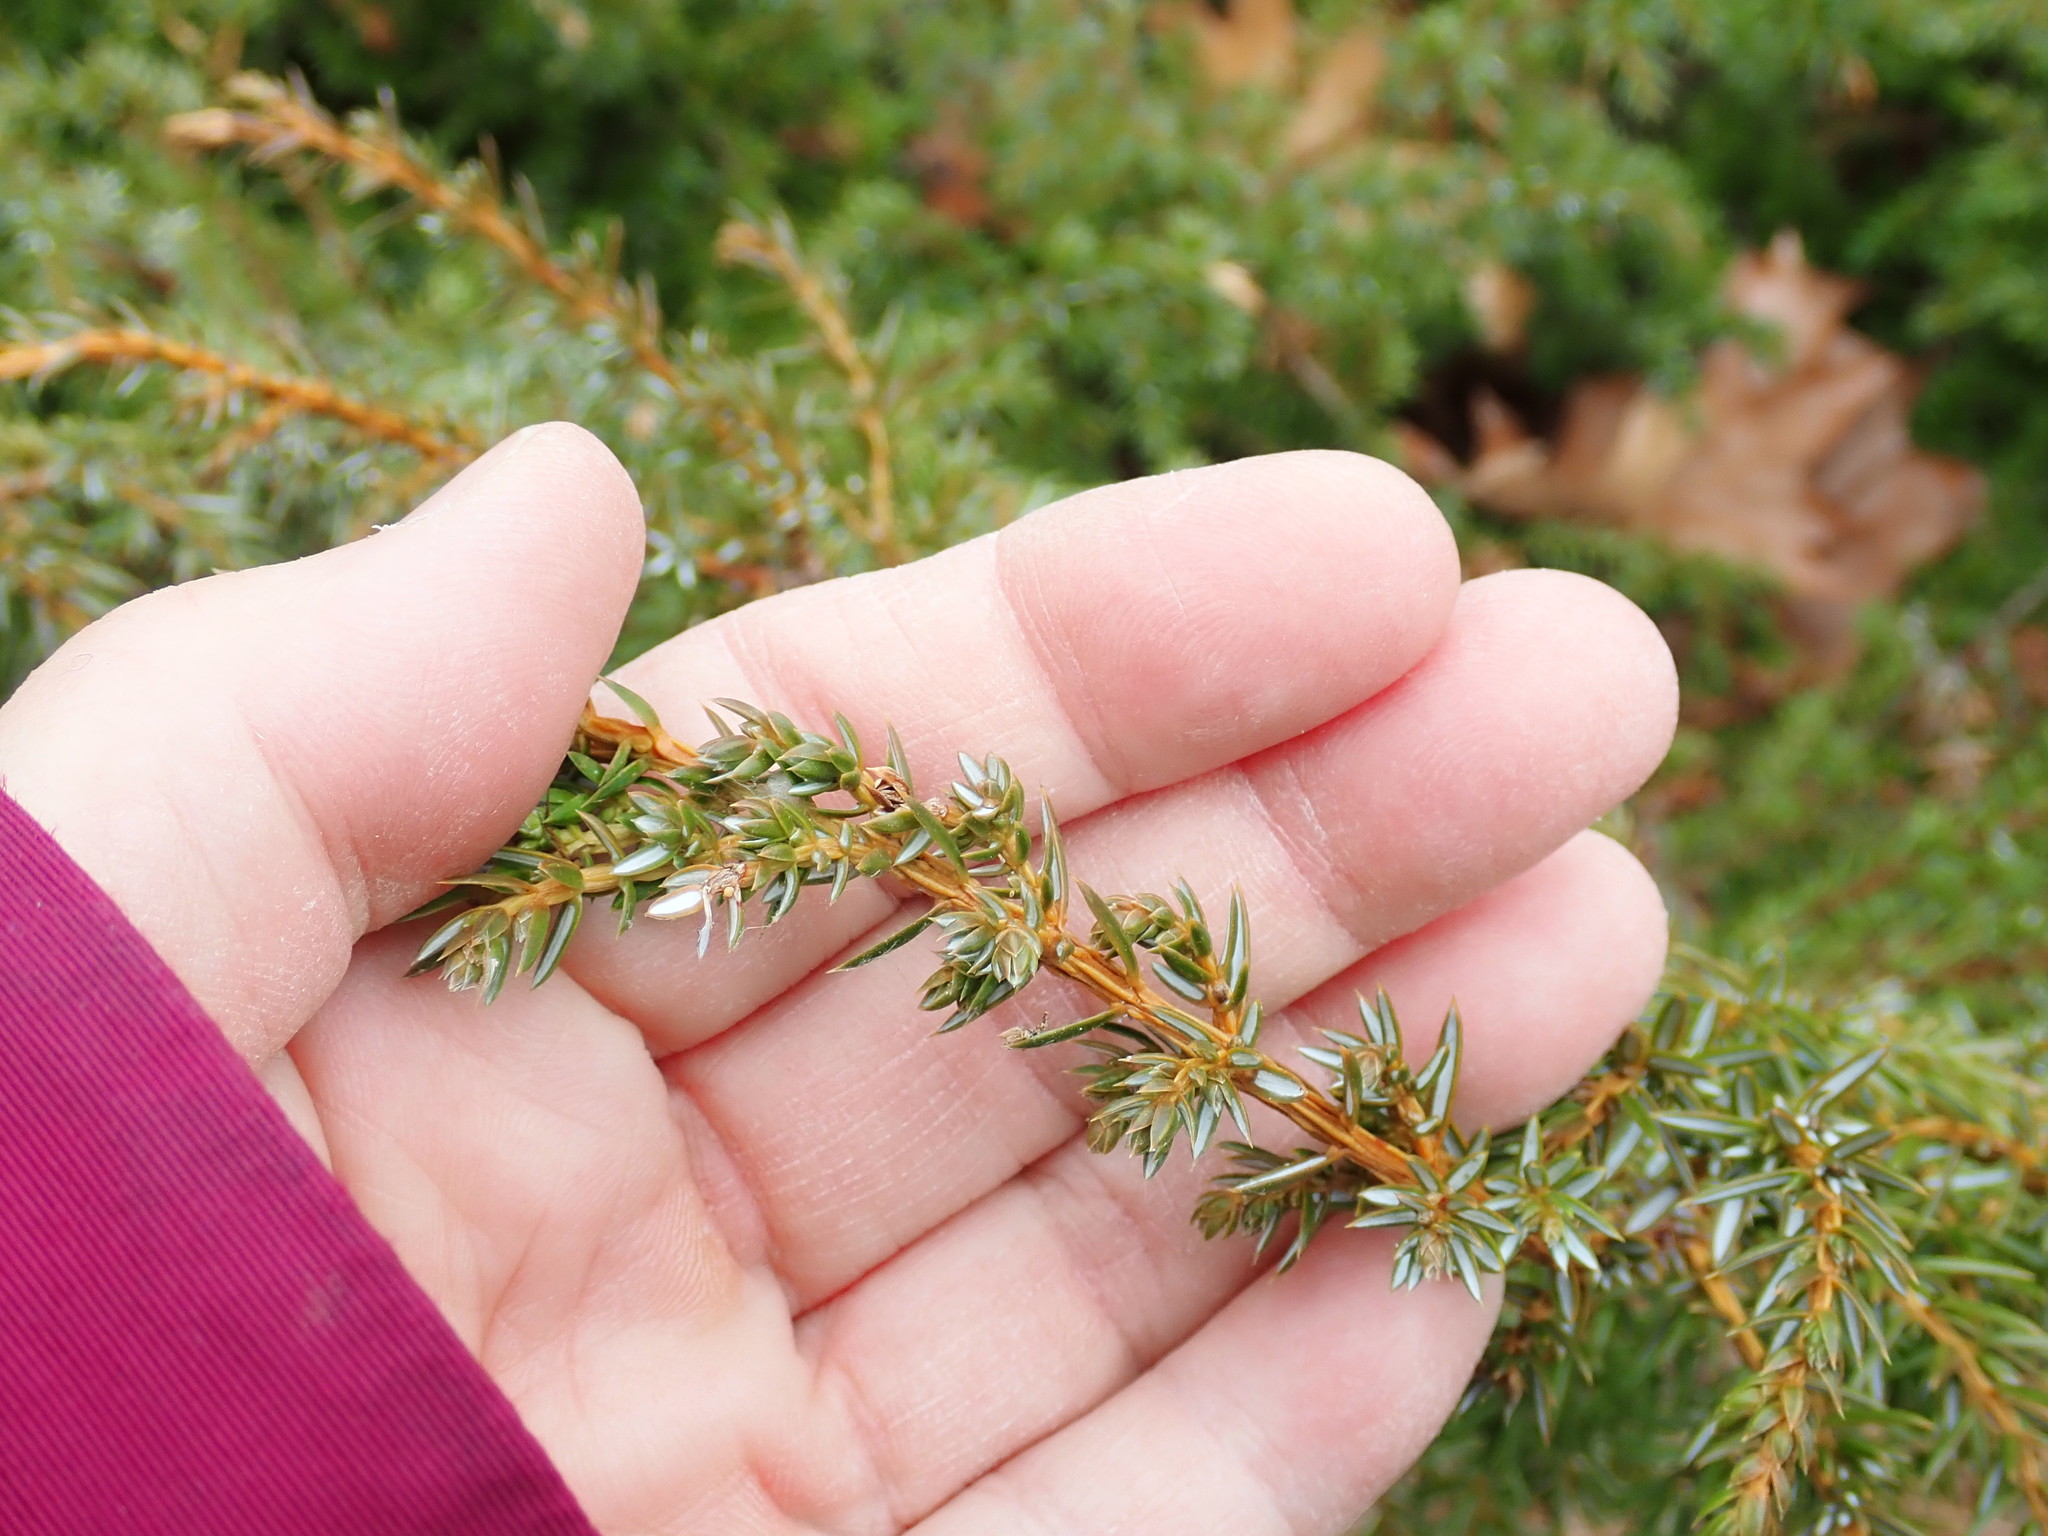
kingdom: Plantae
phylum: Tracheophyta
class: Pinopsida
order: Pinales
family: Cupressaceae
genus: Juniperus
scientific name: Juniperus communis
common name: Common juniper
